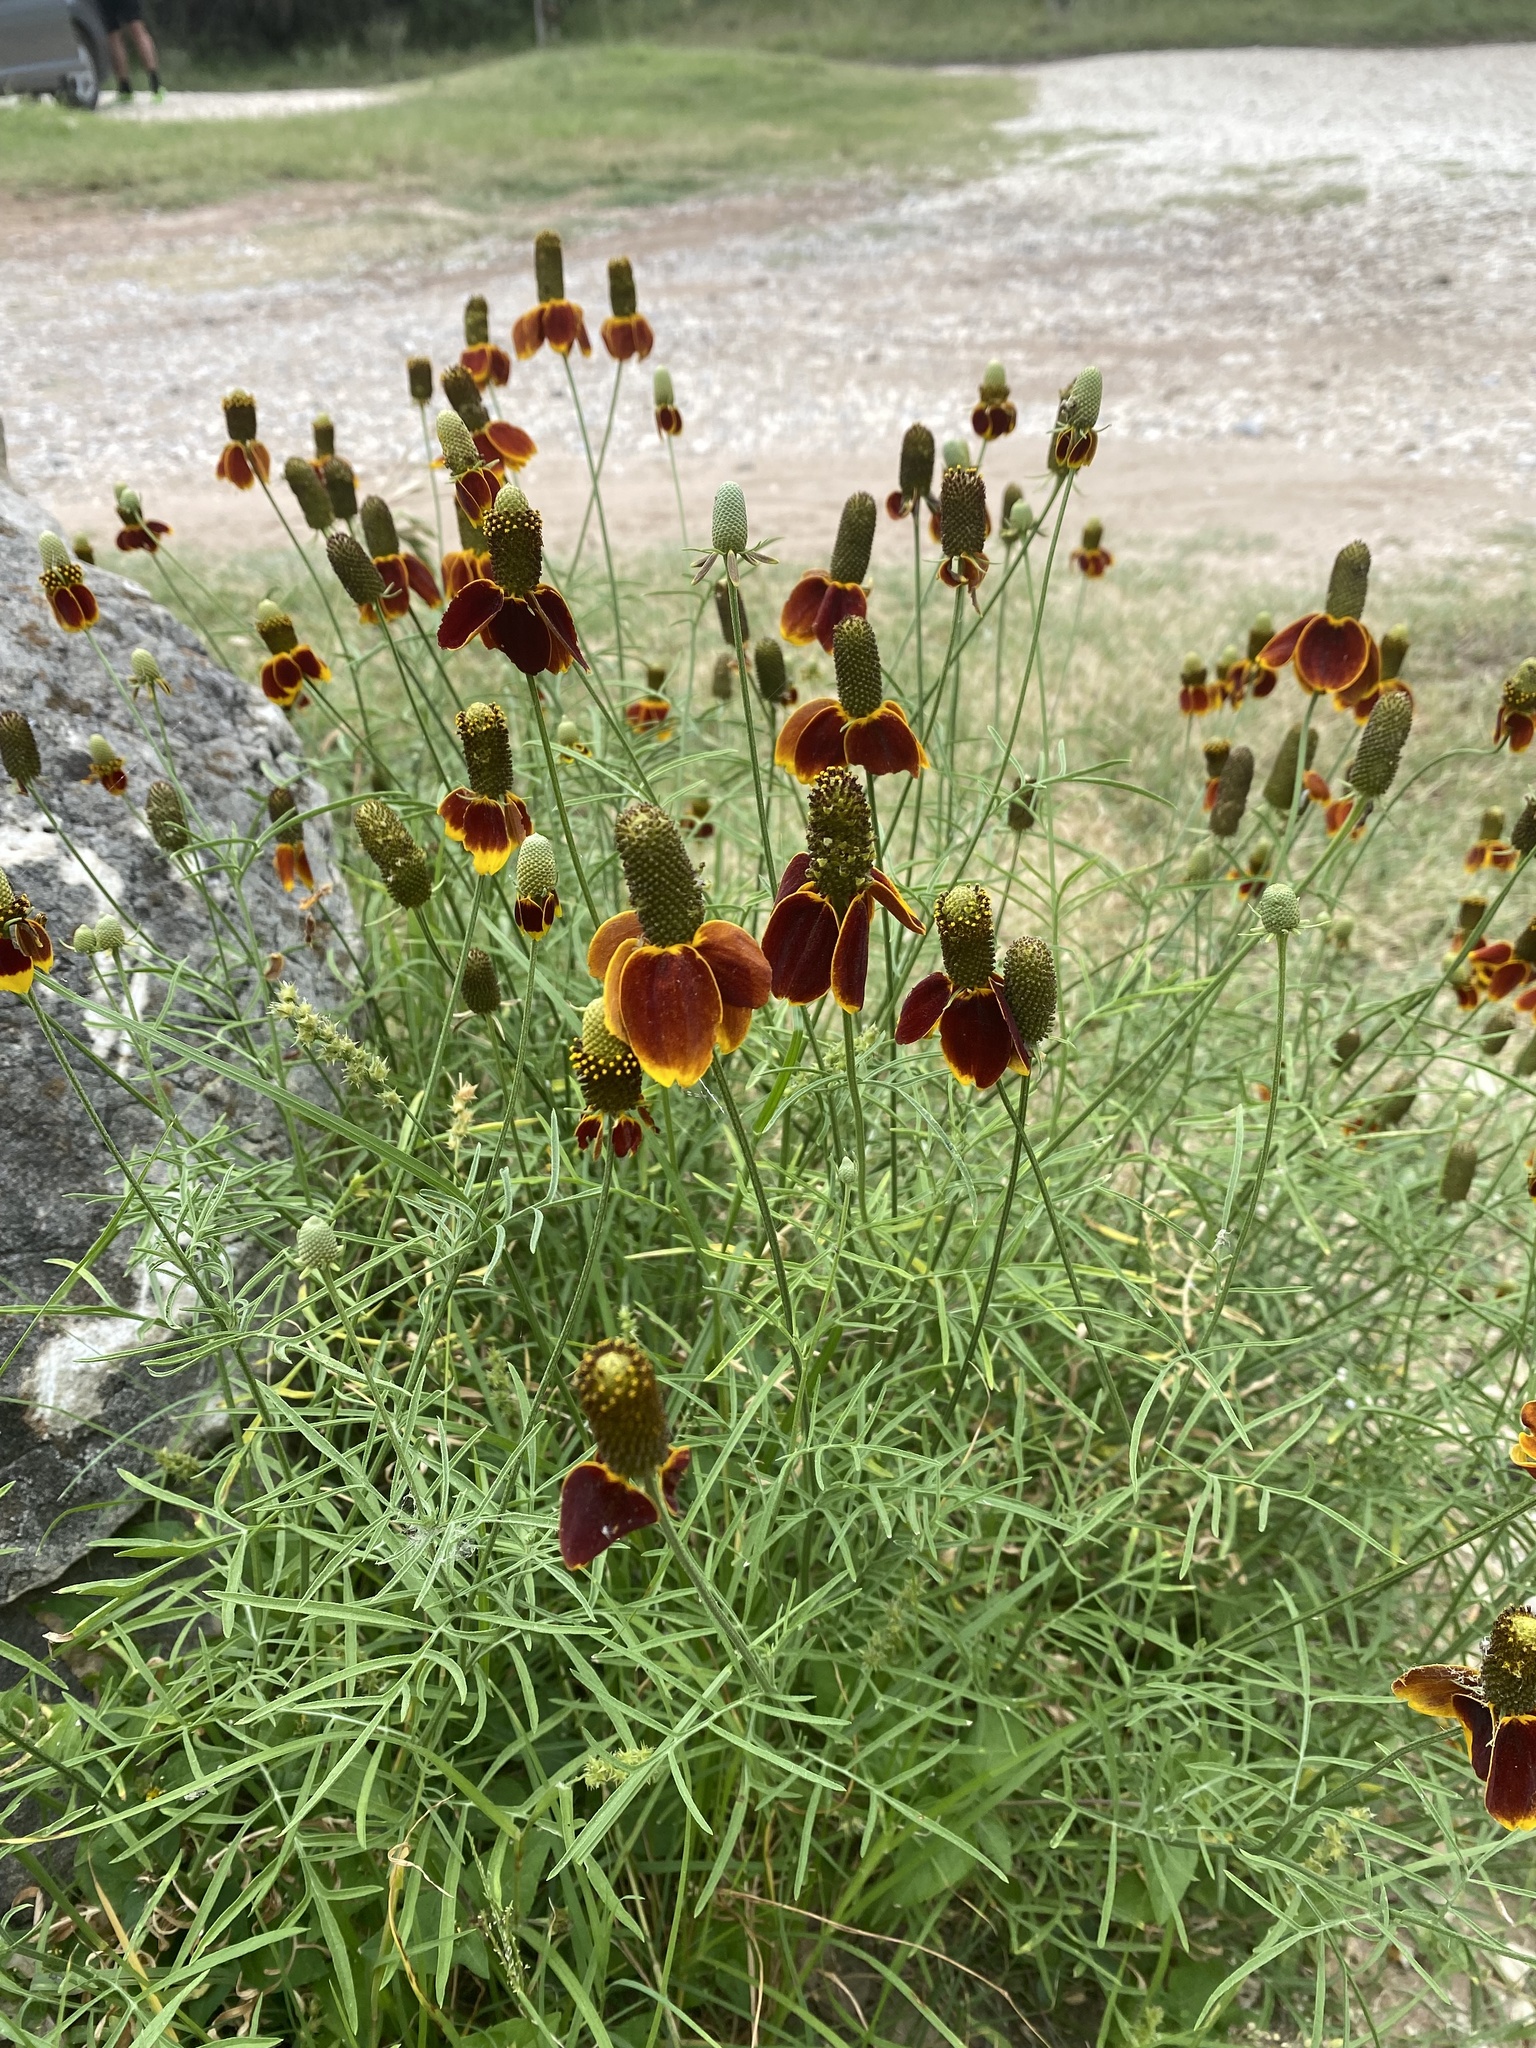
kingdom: Plantae
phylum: Tracheophyta
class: Magnoliopsida
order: Asterales
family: Asteraceae
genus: Ratibida
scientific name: Ratibida columnifera
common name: Prairie coneflower
